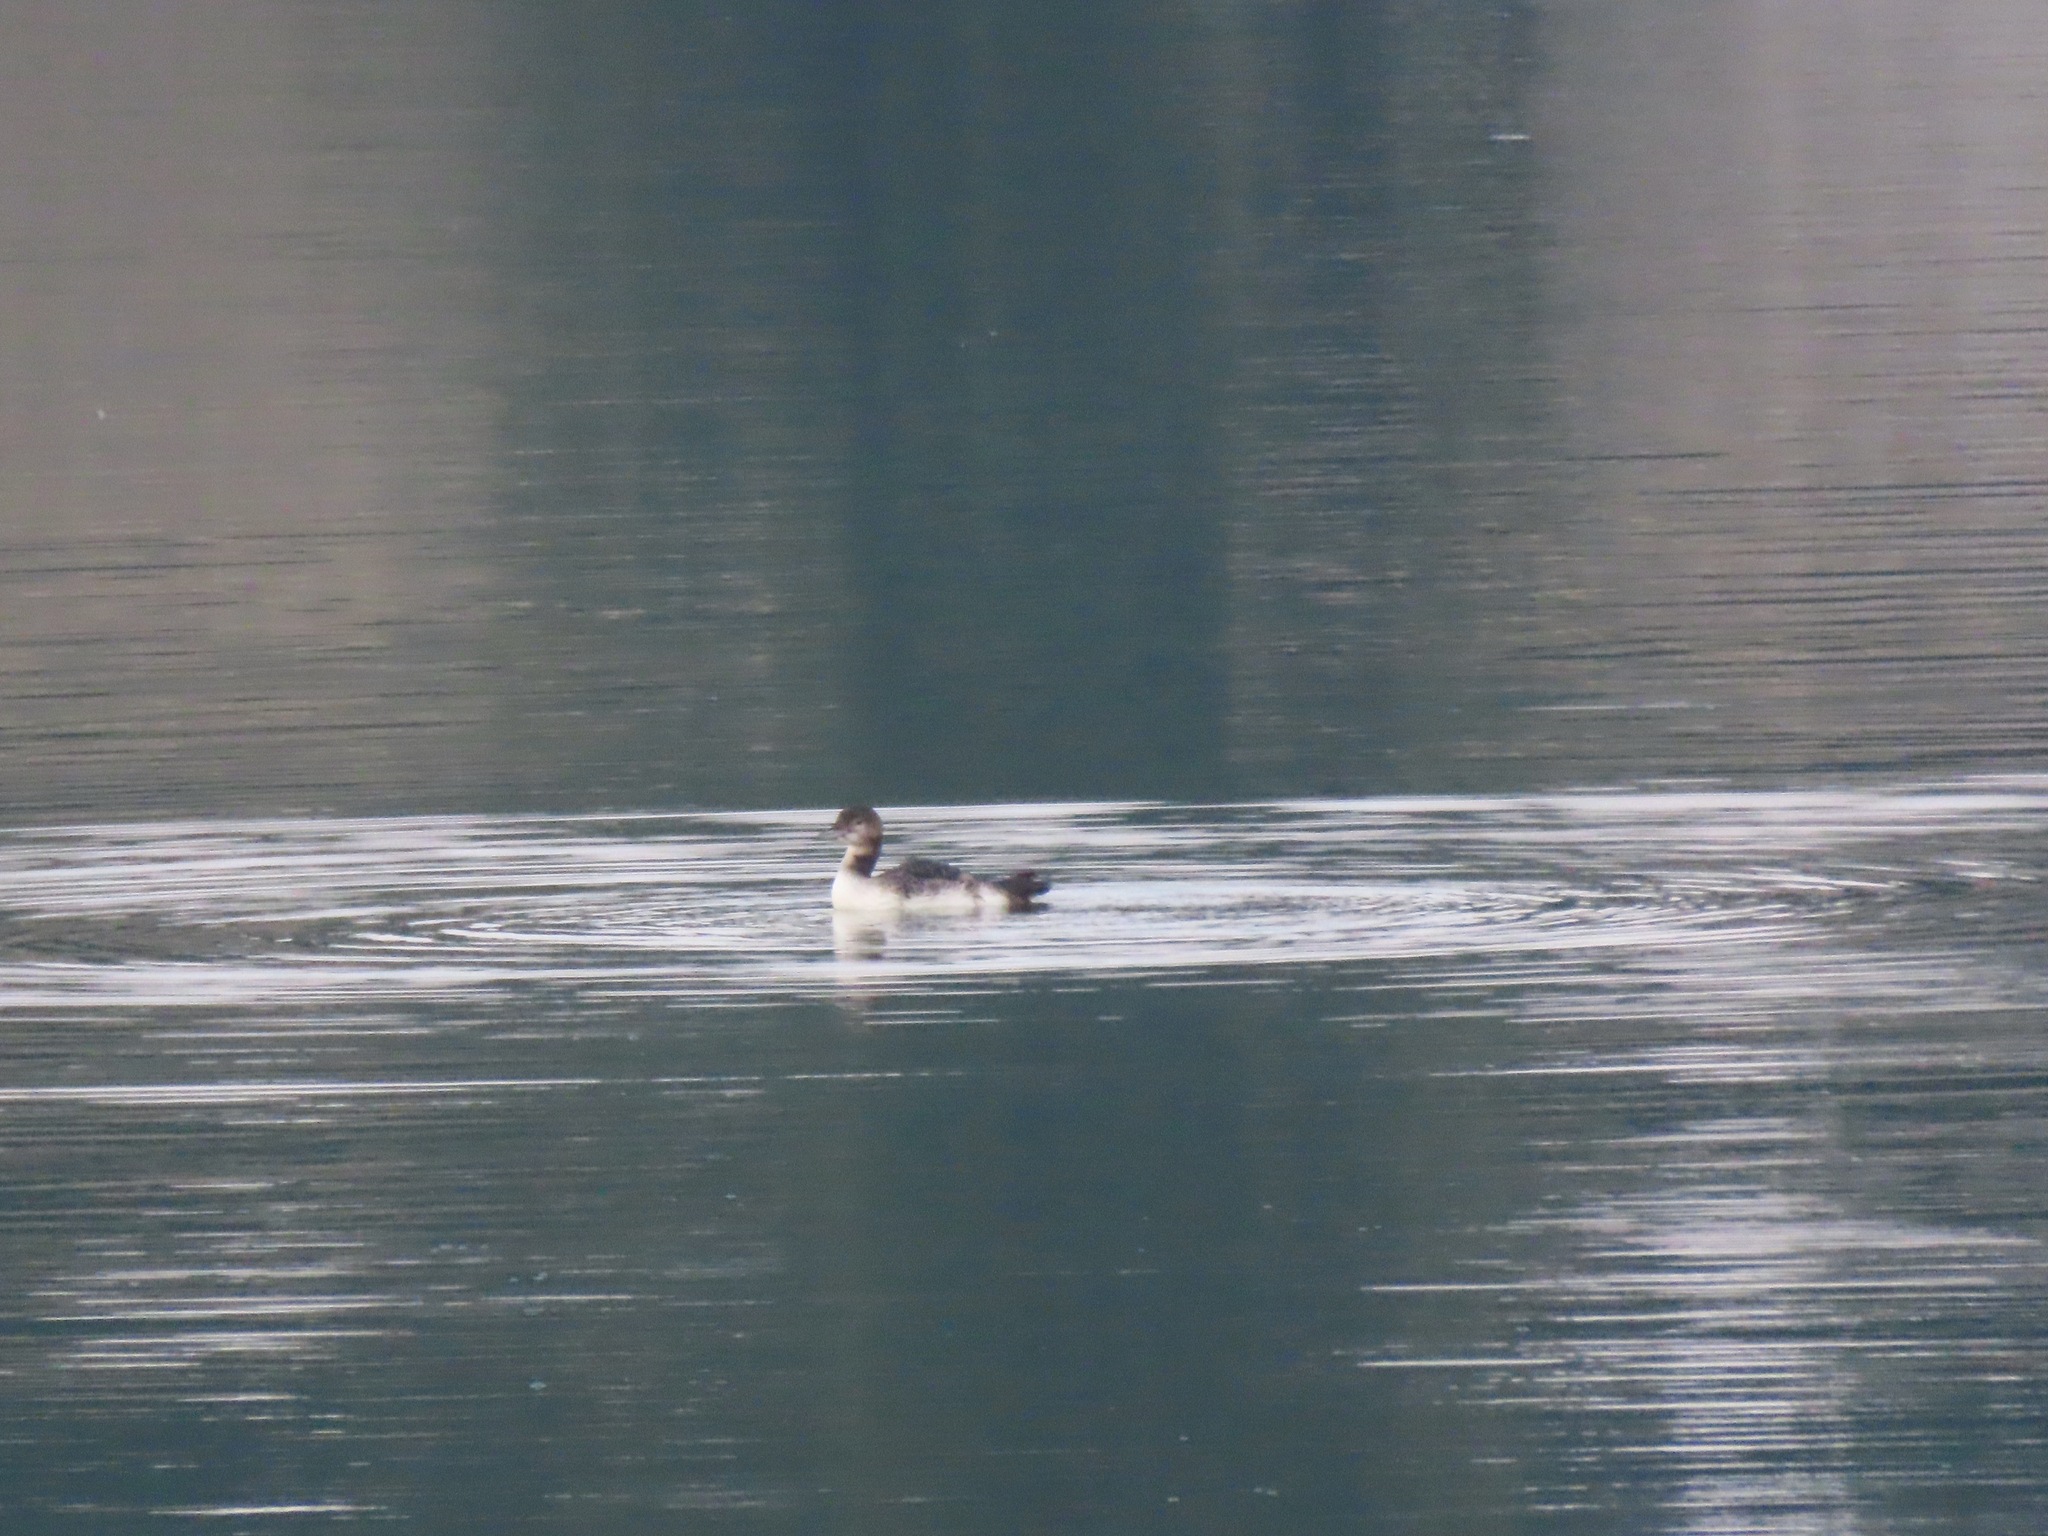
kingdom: Animalia
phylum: Chordata
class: Aves
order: Gaviiformes
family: Gaviidae
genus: Gavia
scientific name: Gavia immer
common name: Common loon
